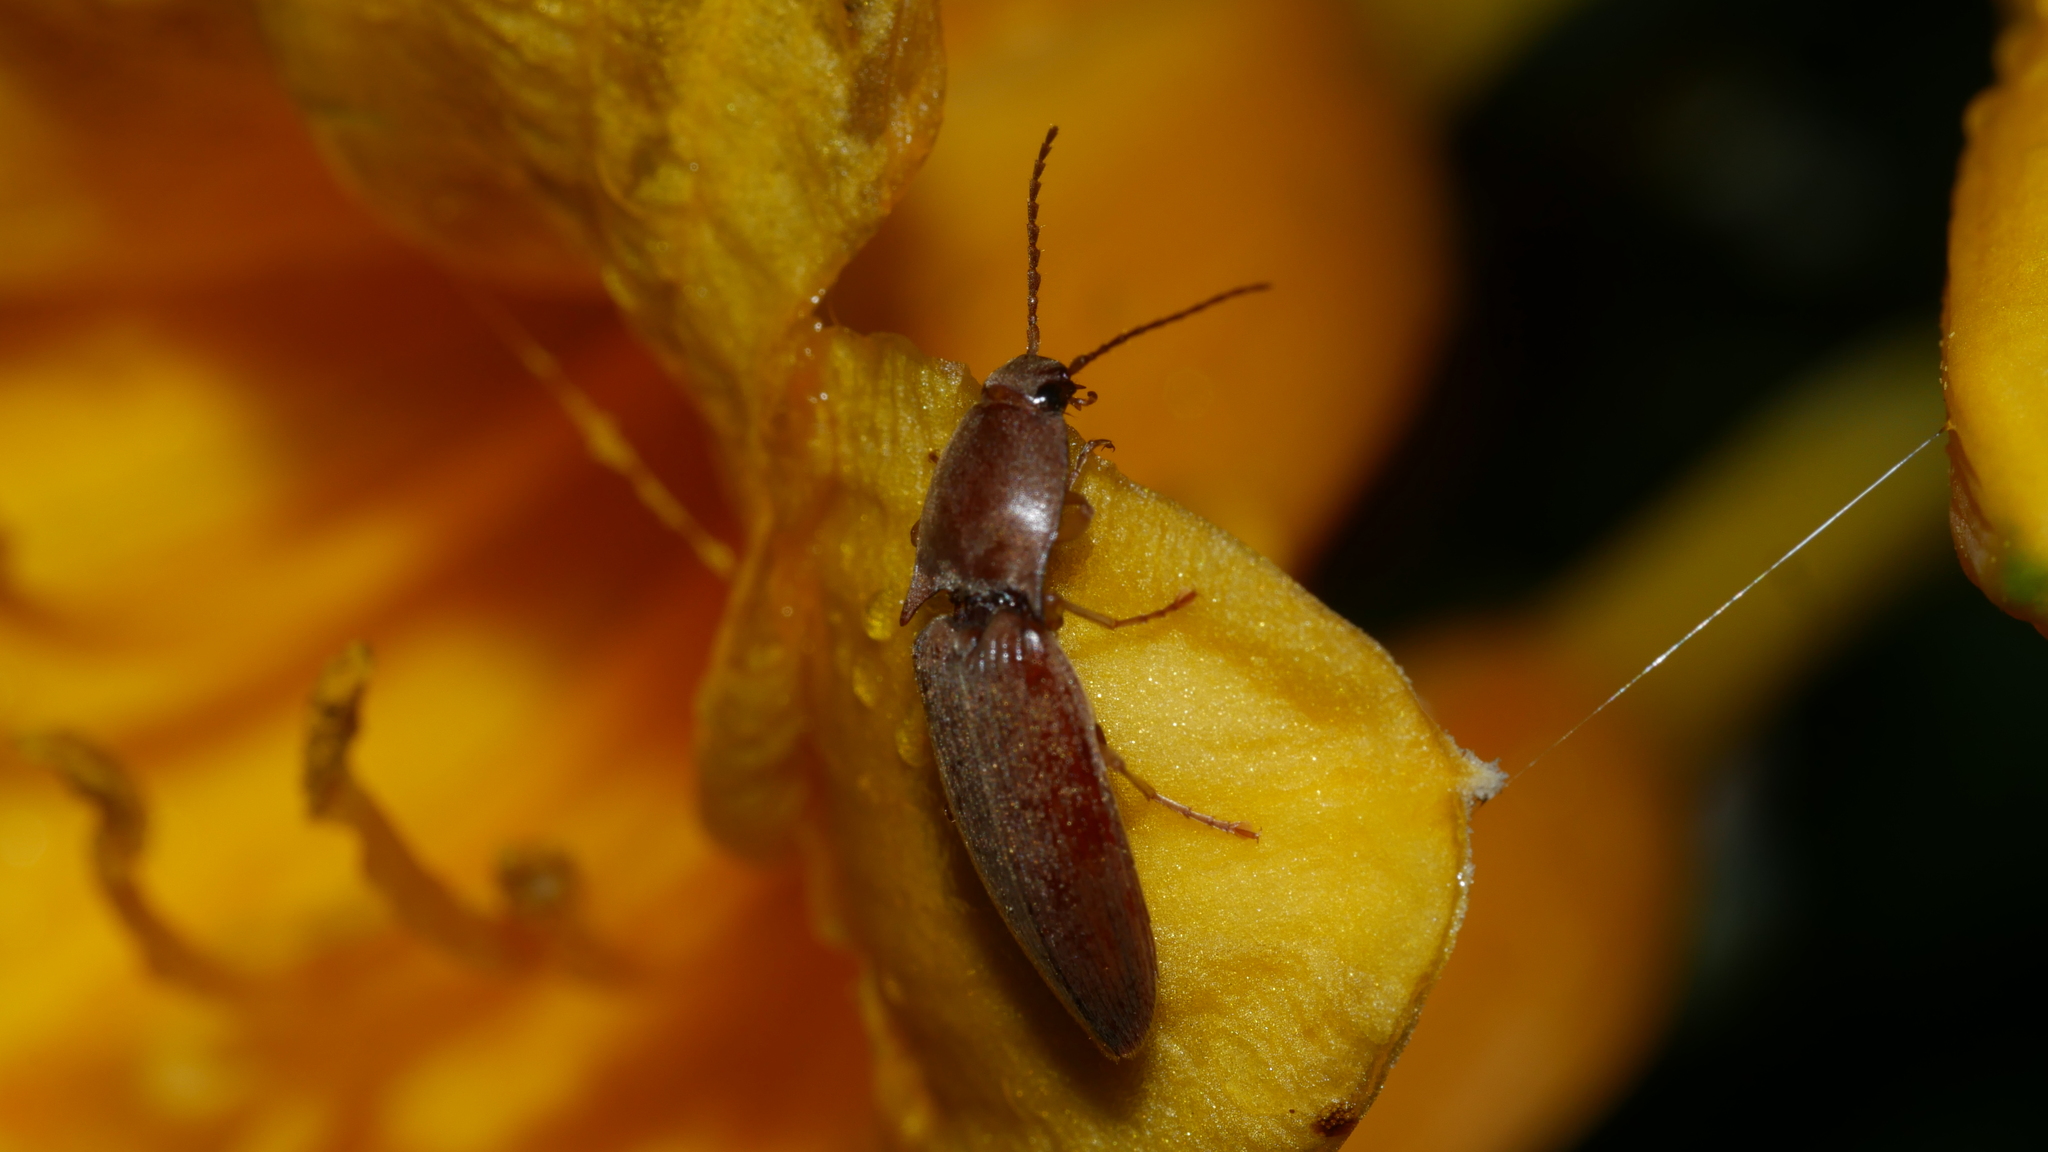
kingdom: Animalia
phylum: Arthropoda
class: Insecta
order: Coleoptera
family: Elateridae
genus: Monocrepidius
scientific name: Monocrepidius lividus
